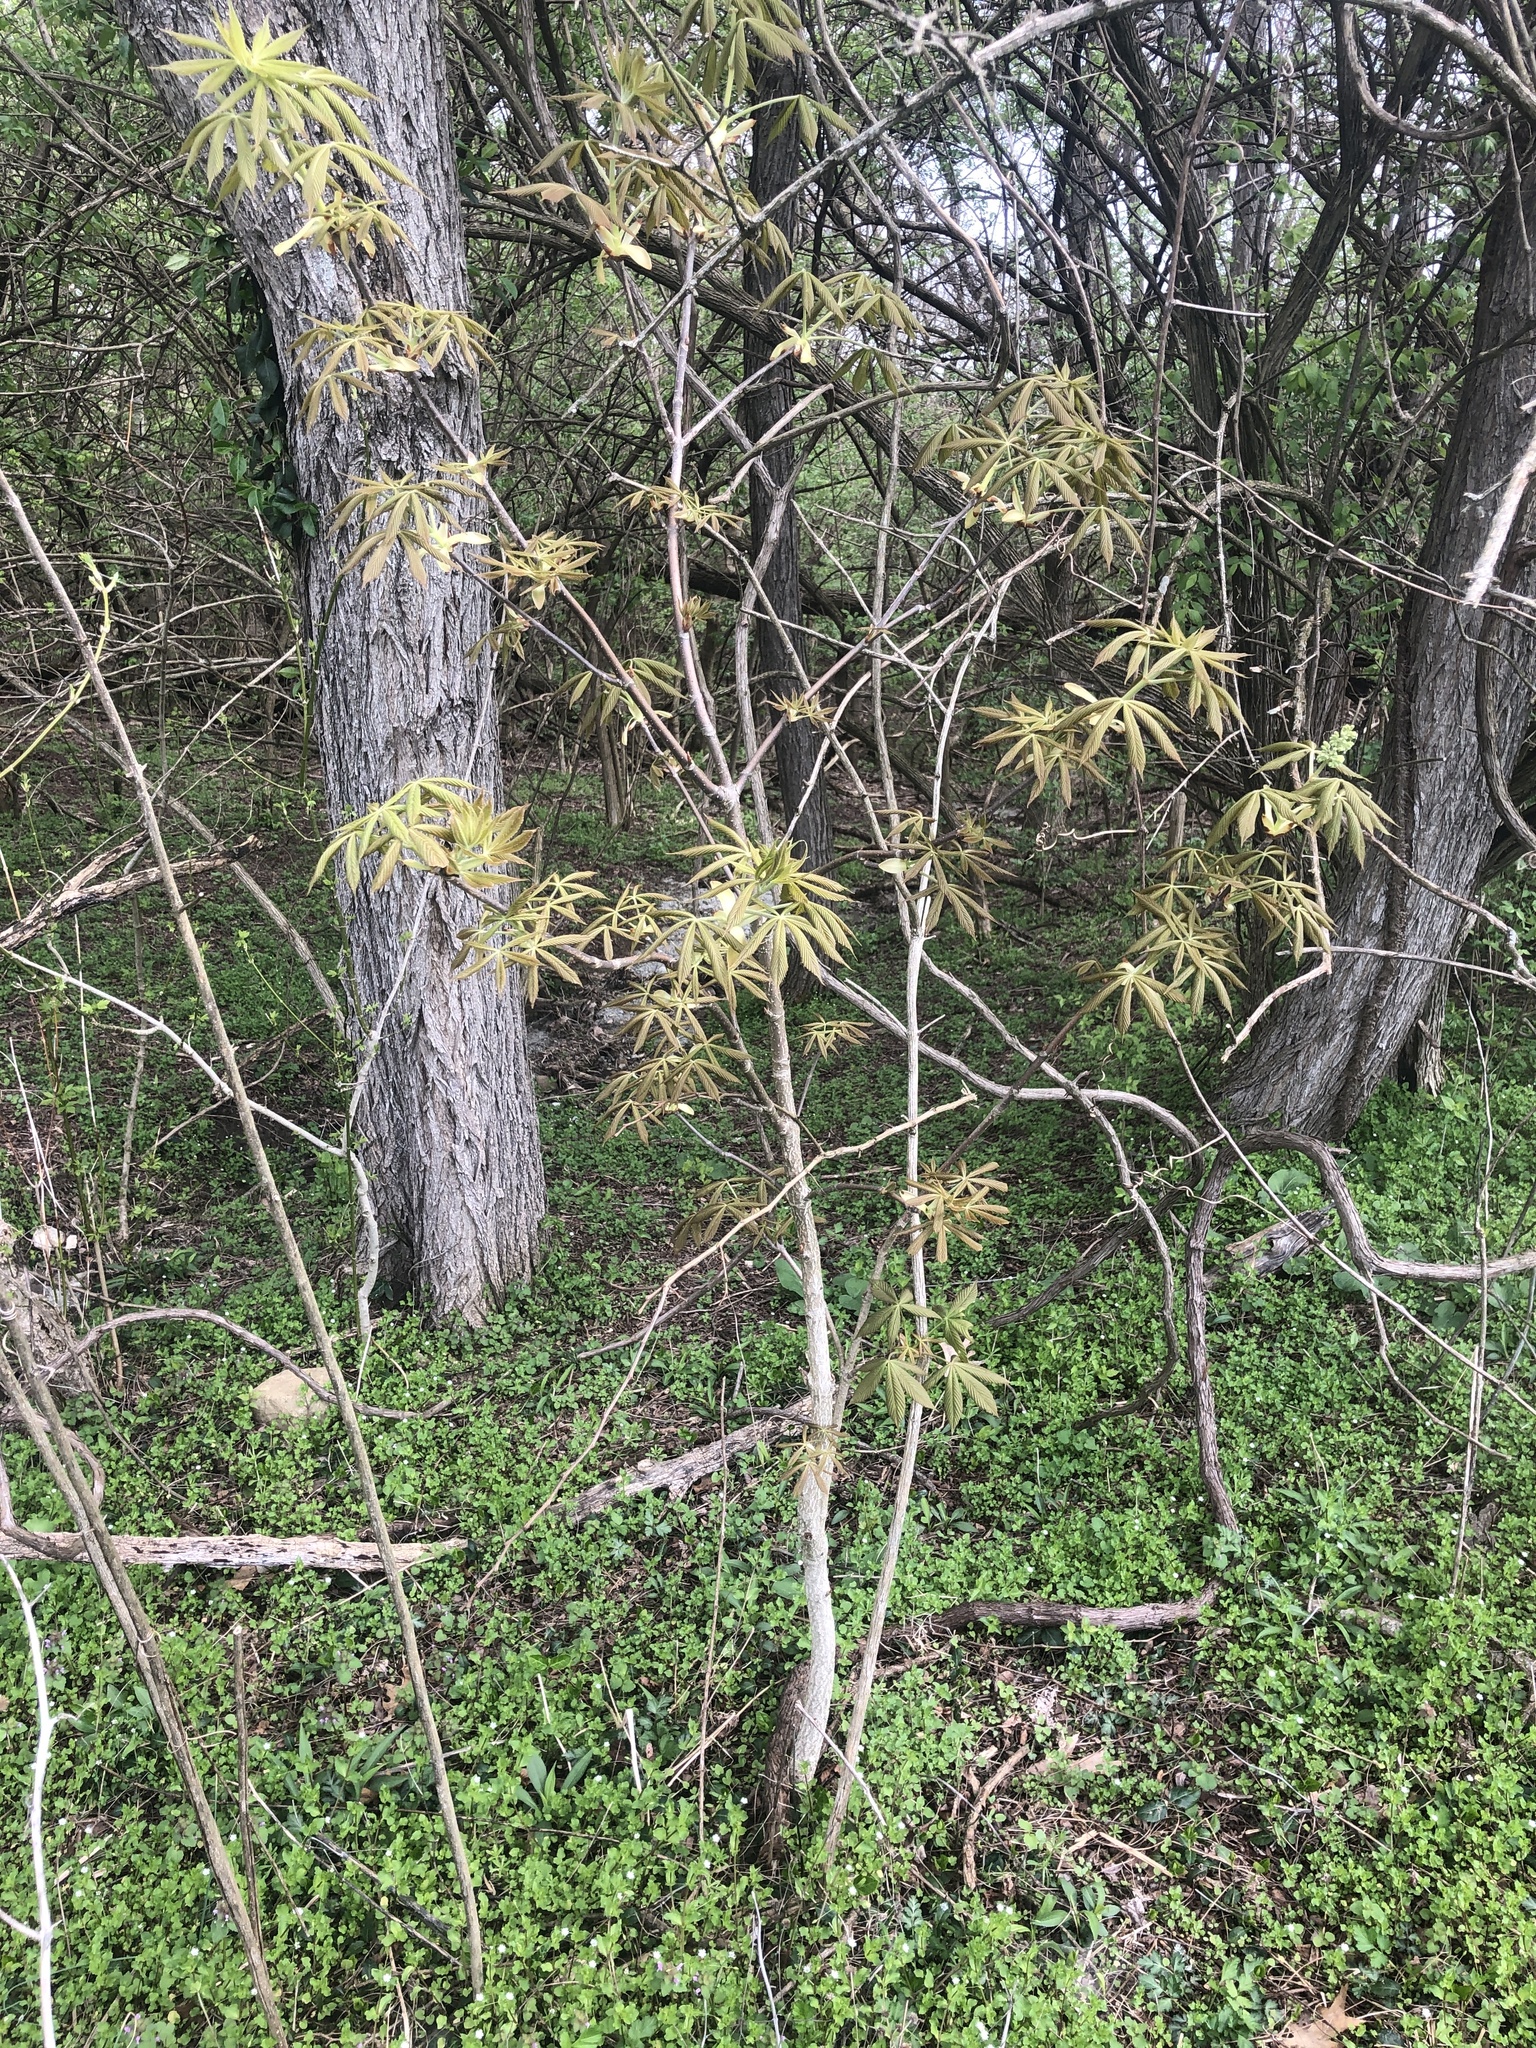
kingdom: Plantae
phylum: Tracheophyta
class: Magnoliopsida
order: Sapindales
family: Sapindaceae
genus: Aesculus
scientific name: Aesculus glabra
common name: Ohio buckeye
